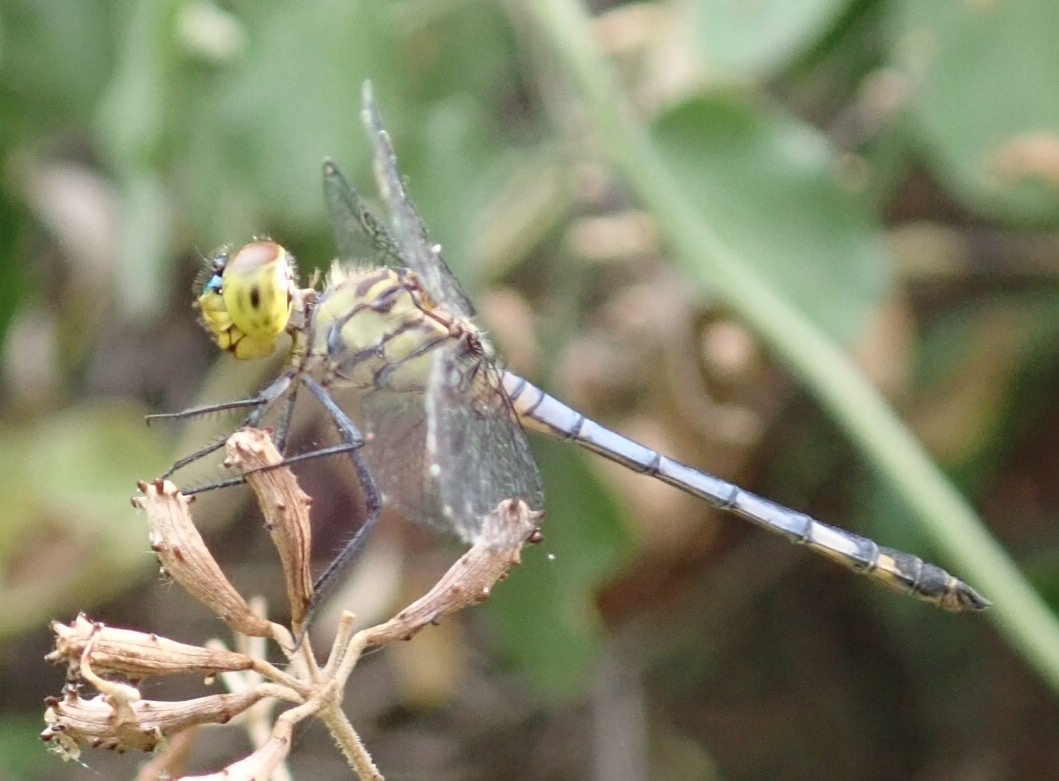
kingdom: Animalia
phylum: Arthropoda
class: Insecta
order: Odonata
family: Libellulidae
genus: Chalcostephia
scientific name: Chalcostephia flavifrons
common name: Inspector
